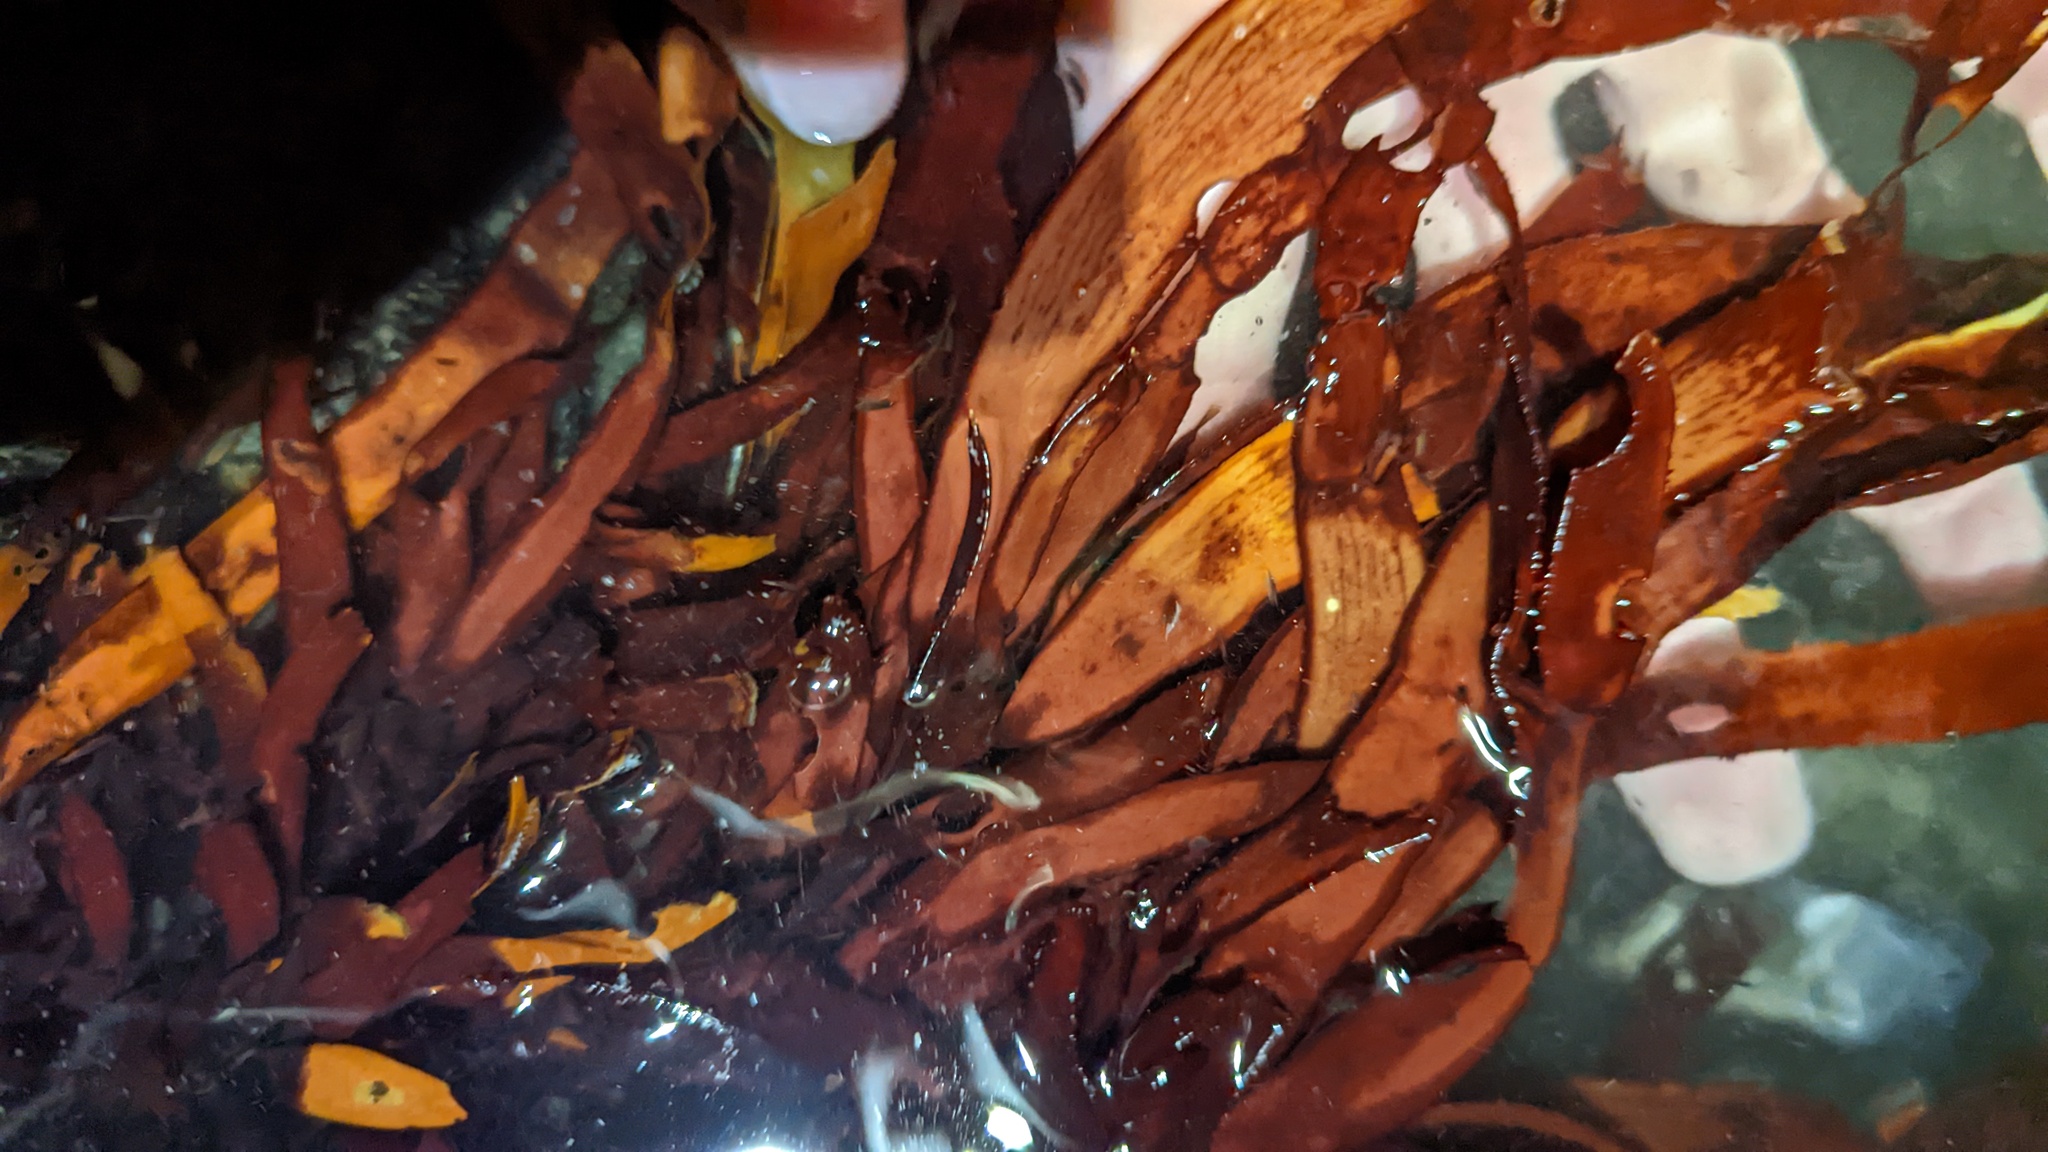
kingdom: Plantae
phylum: Rhodophyta
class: Florideophyceae
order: Halymeniales
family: Halymeniaceae
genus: Grateloupia
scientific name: Grateloupia Prionitis lanceolata
